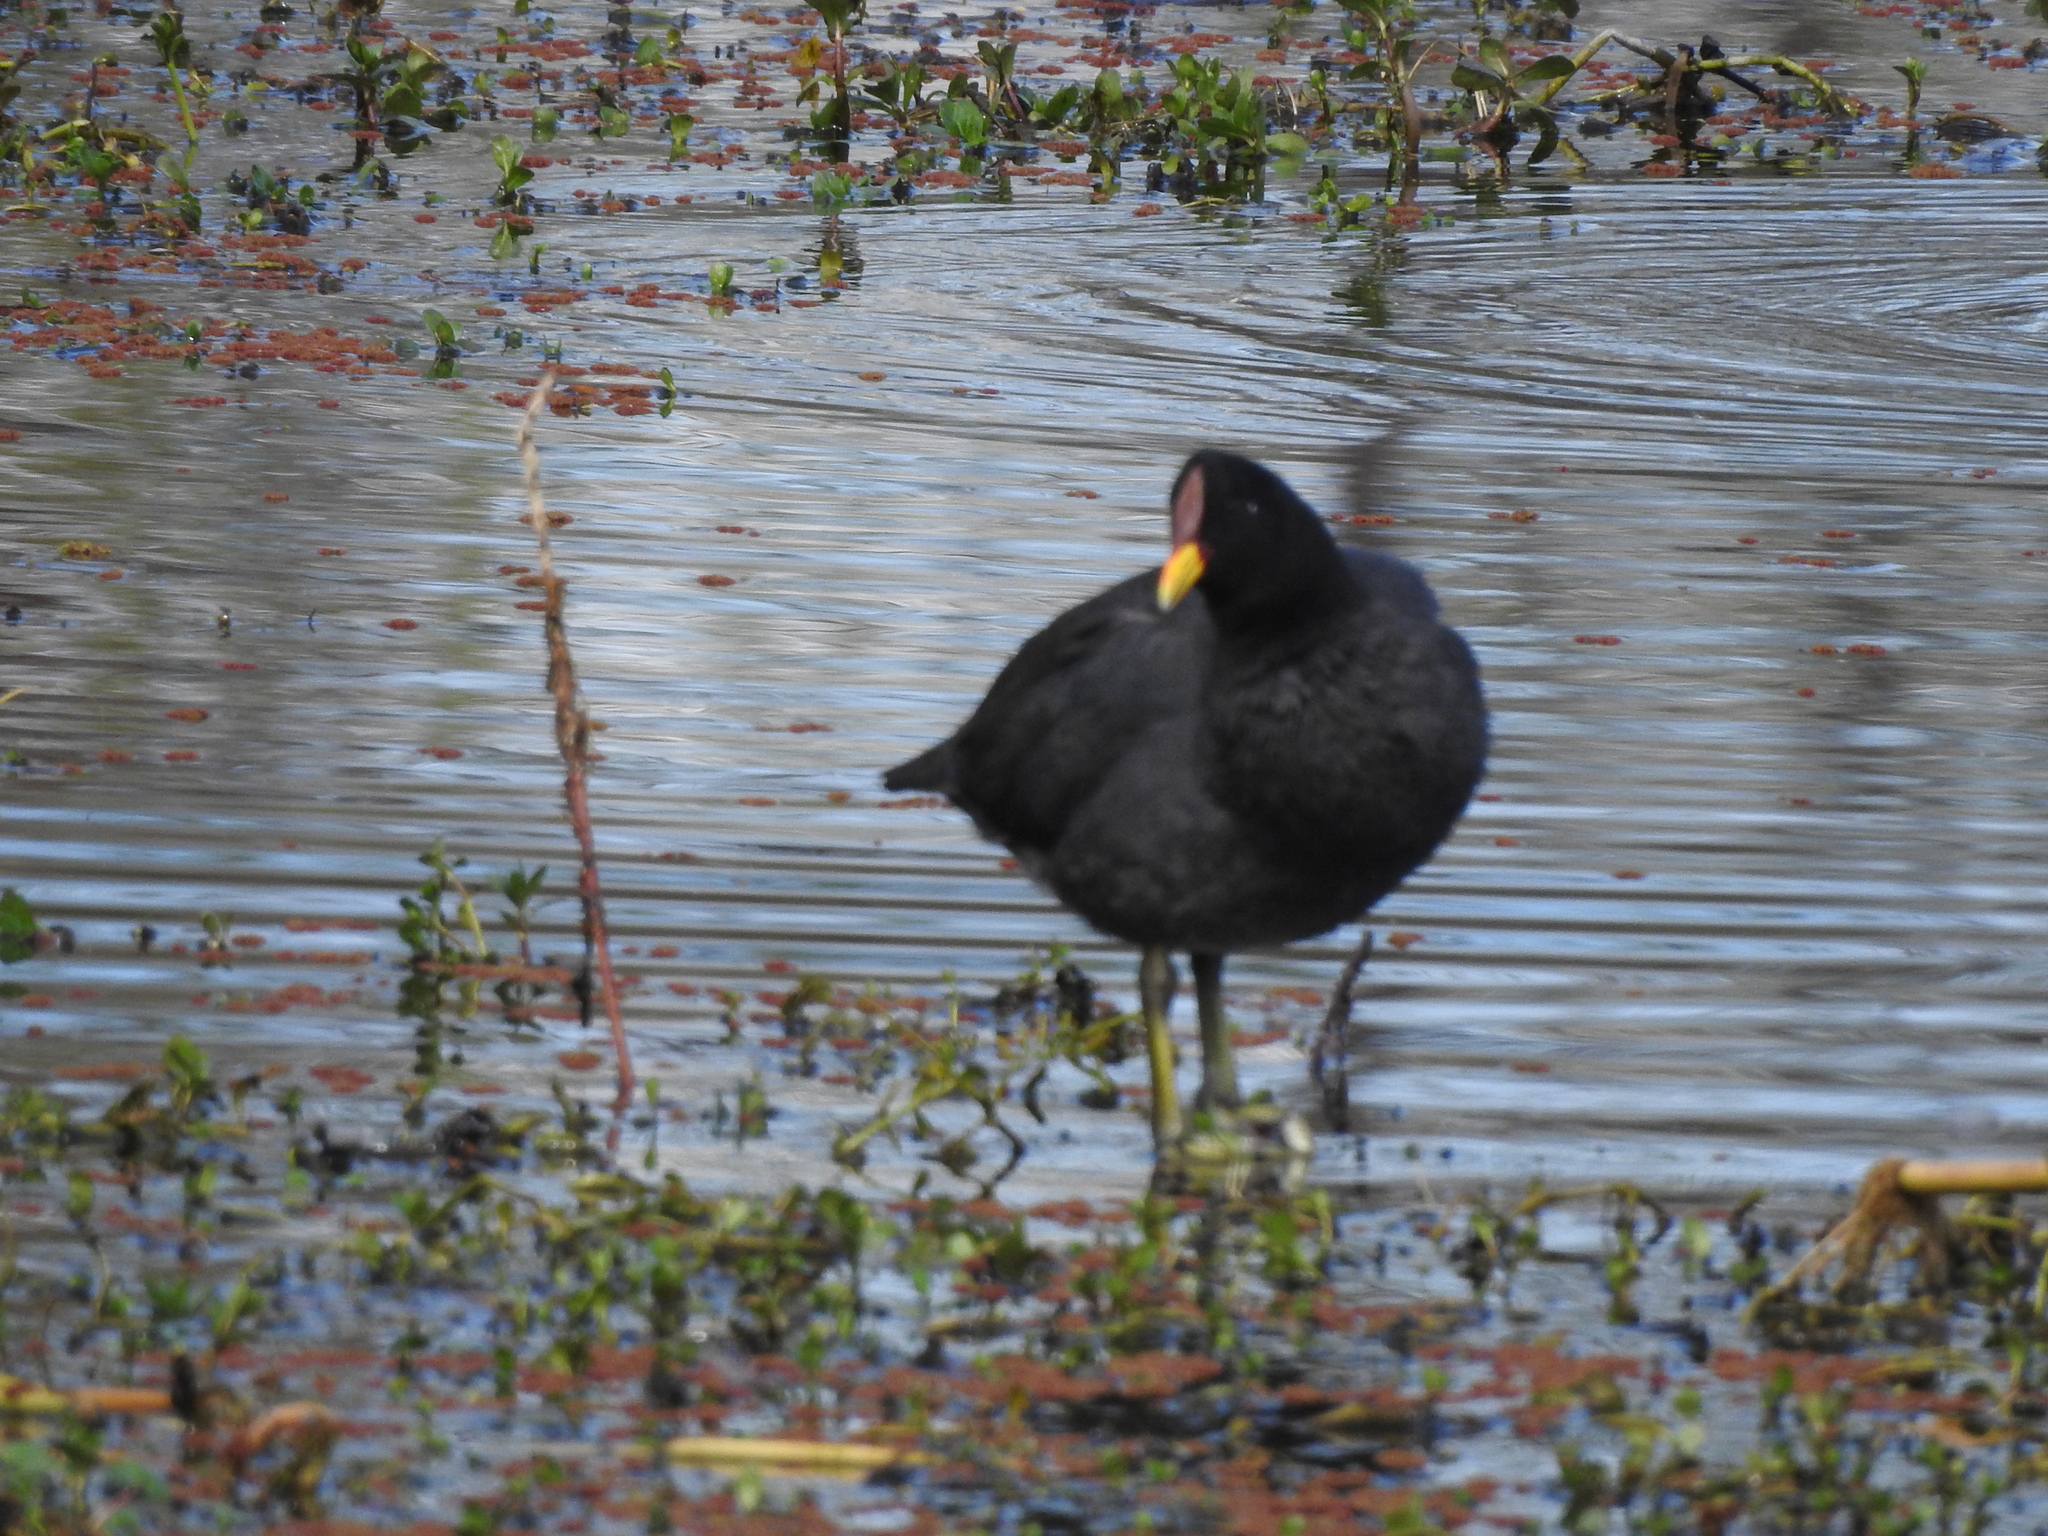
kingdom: Animalia
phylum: Chordata
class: Aves
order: Gruiformes
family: Rallidae
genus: Fulica
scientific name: Fulica rufifrons
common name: Red-fronted coot
